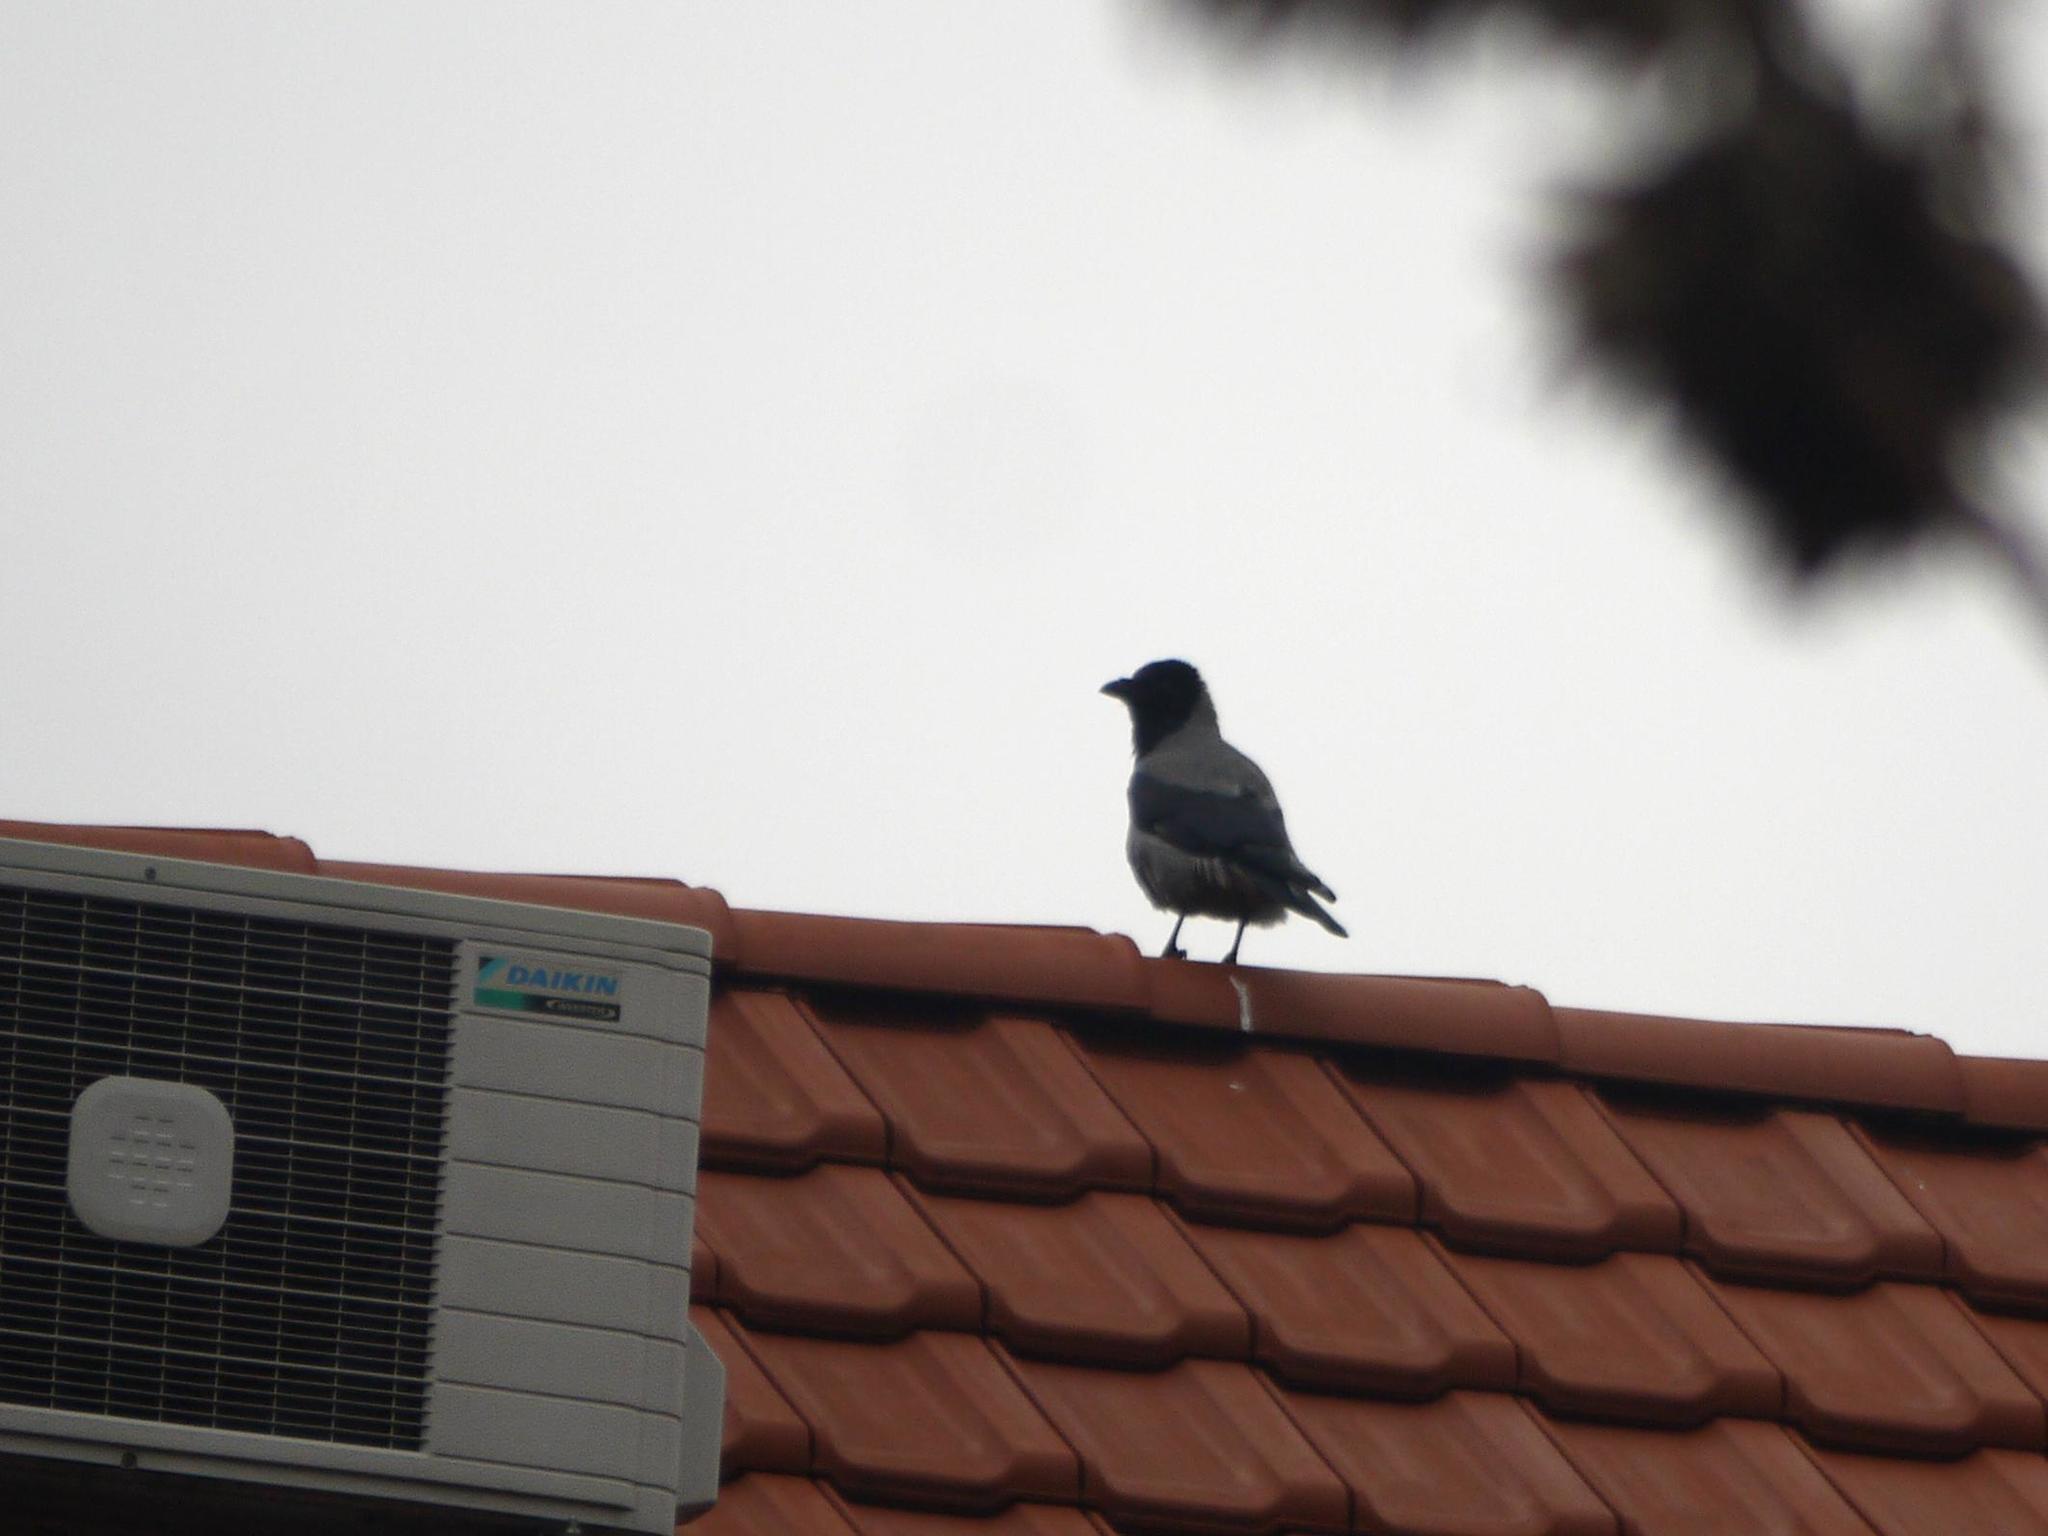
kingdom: Animalia
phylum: Chordata
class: Aves
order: Passeriformes
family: Corvidae
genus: Corvus
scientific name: Corvus cornix
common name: Hooded crow
